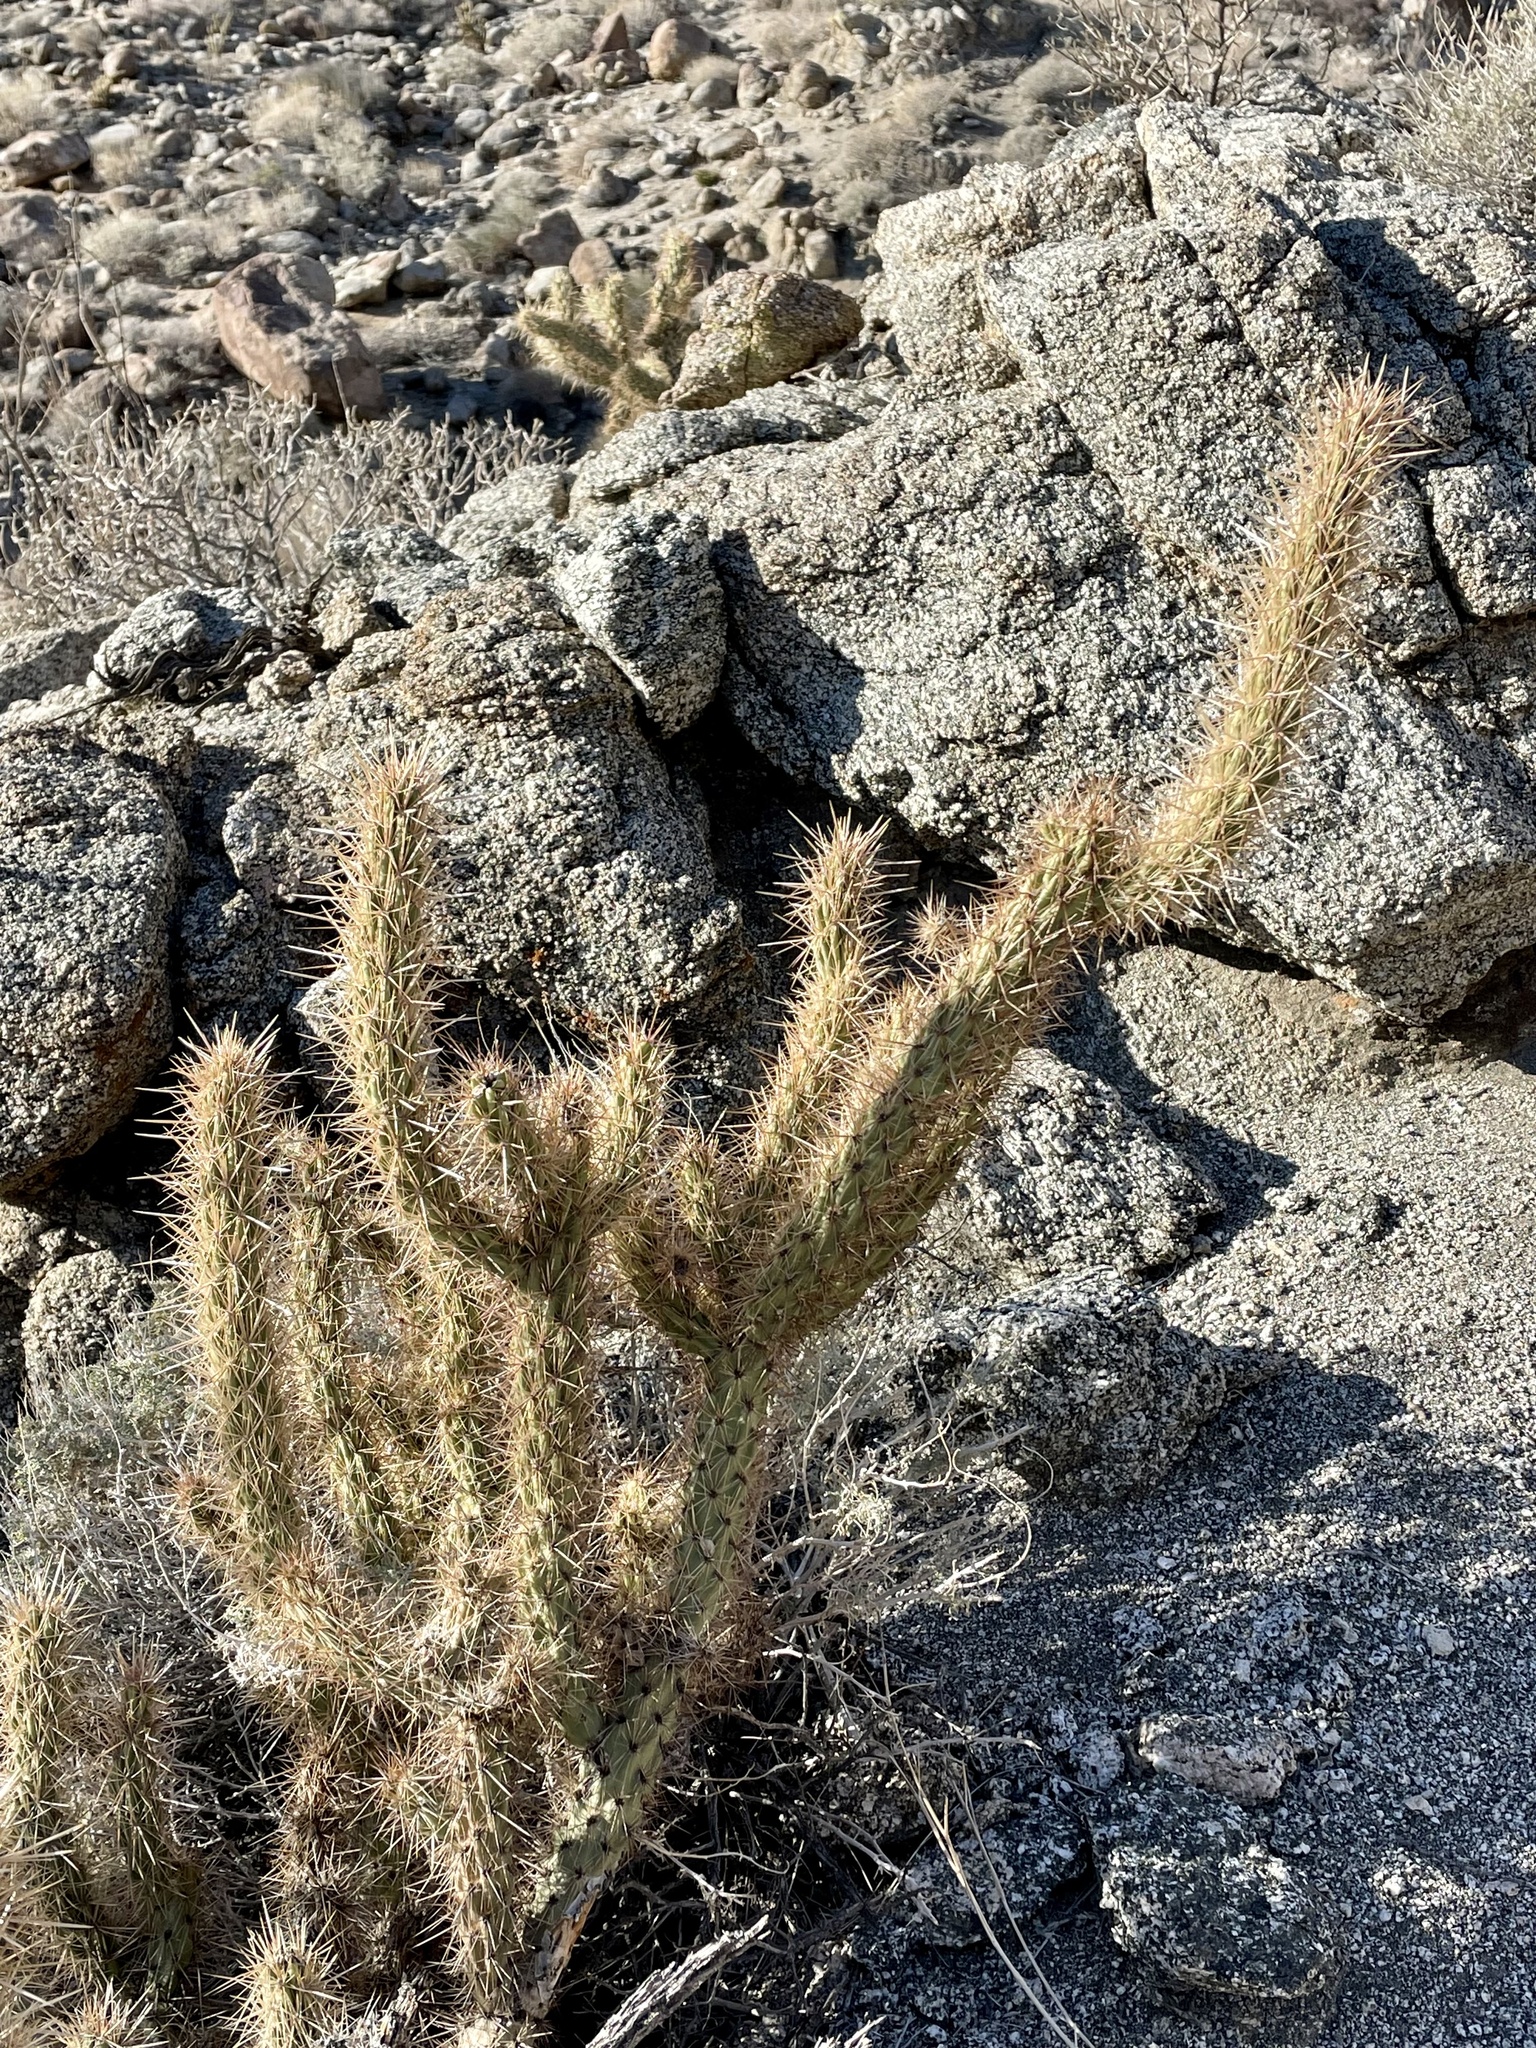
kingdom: Plantae
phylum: Tracheophyta
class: Magnoliopsida
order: Caryophyllales
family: Cactaceae
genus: Cylindropuntia
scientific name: Cylindropuntia ganderi
